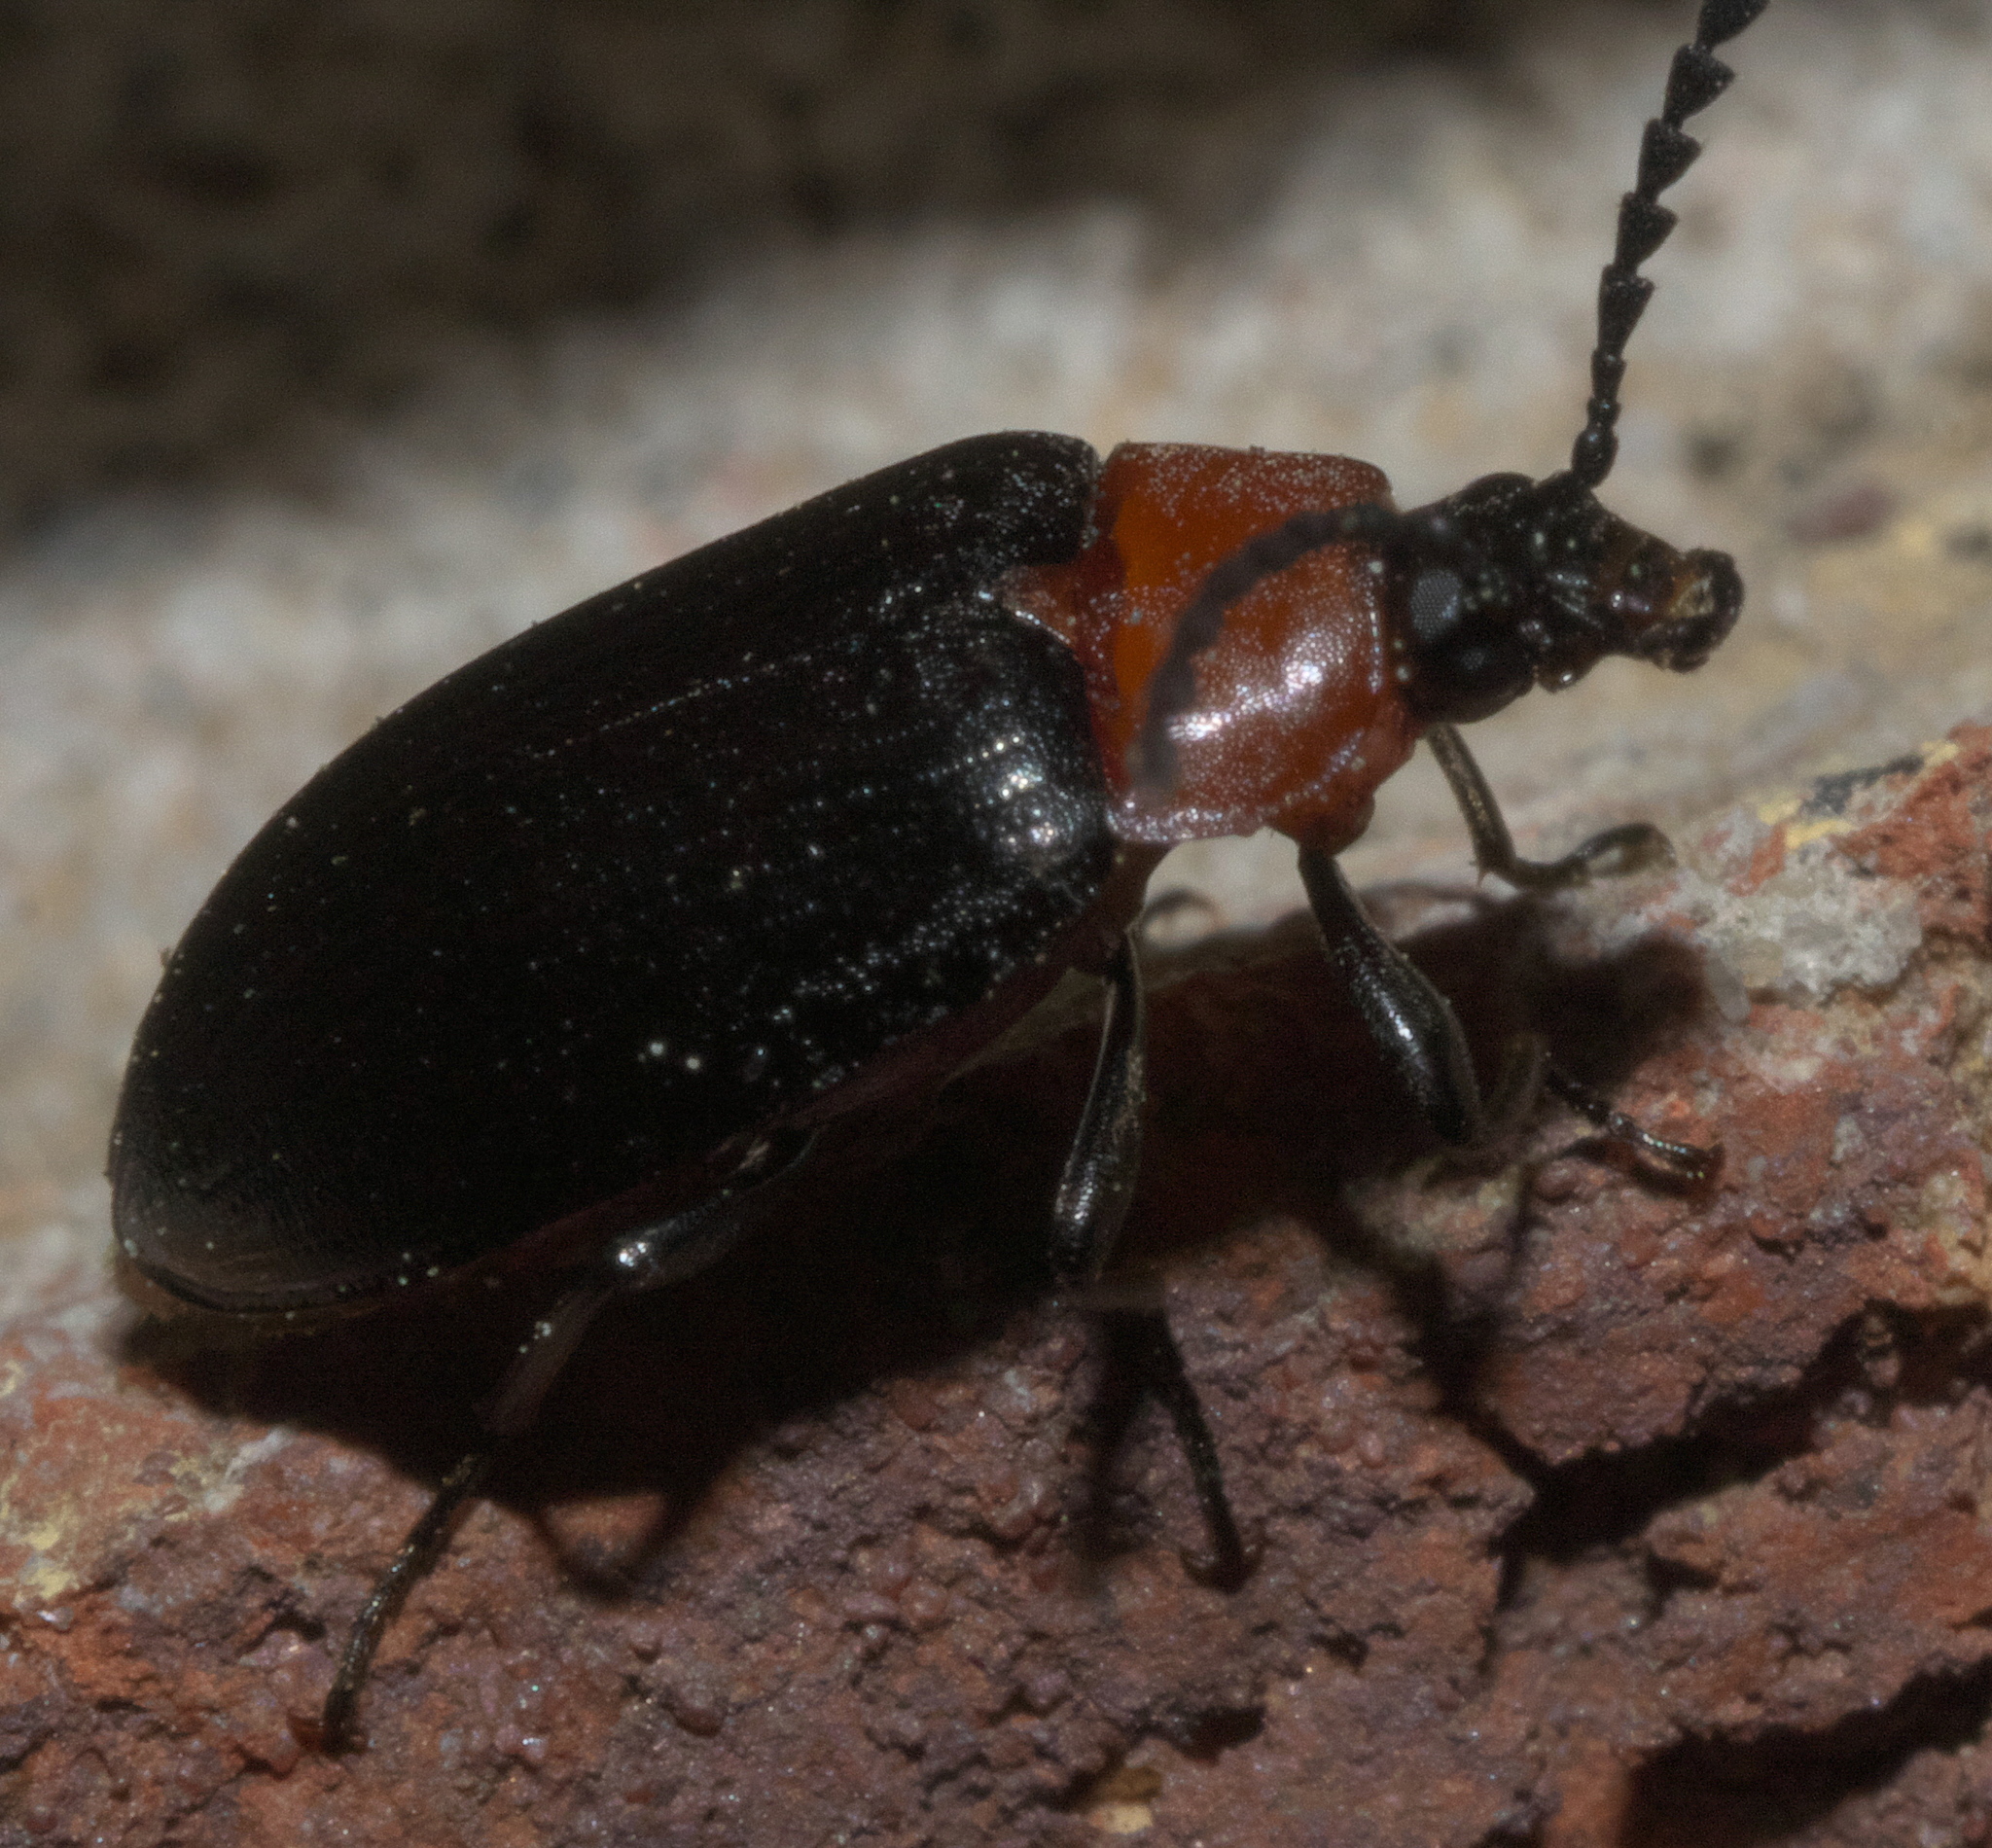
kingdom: Animalia
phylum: Arthropoda
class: Insecta
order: Coleoptera
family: Tenebrionidae
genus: Chromatia
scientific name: Chromatia amoena
